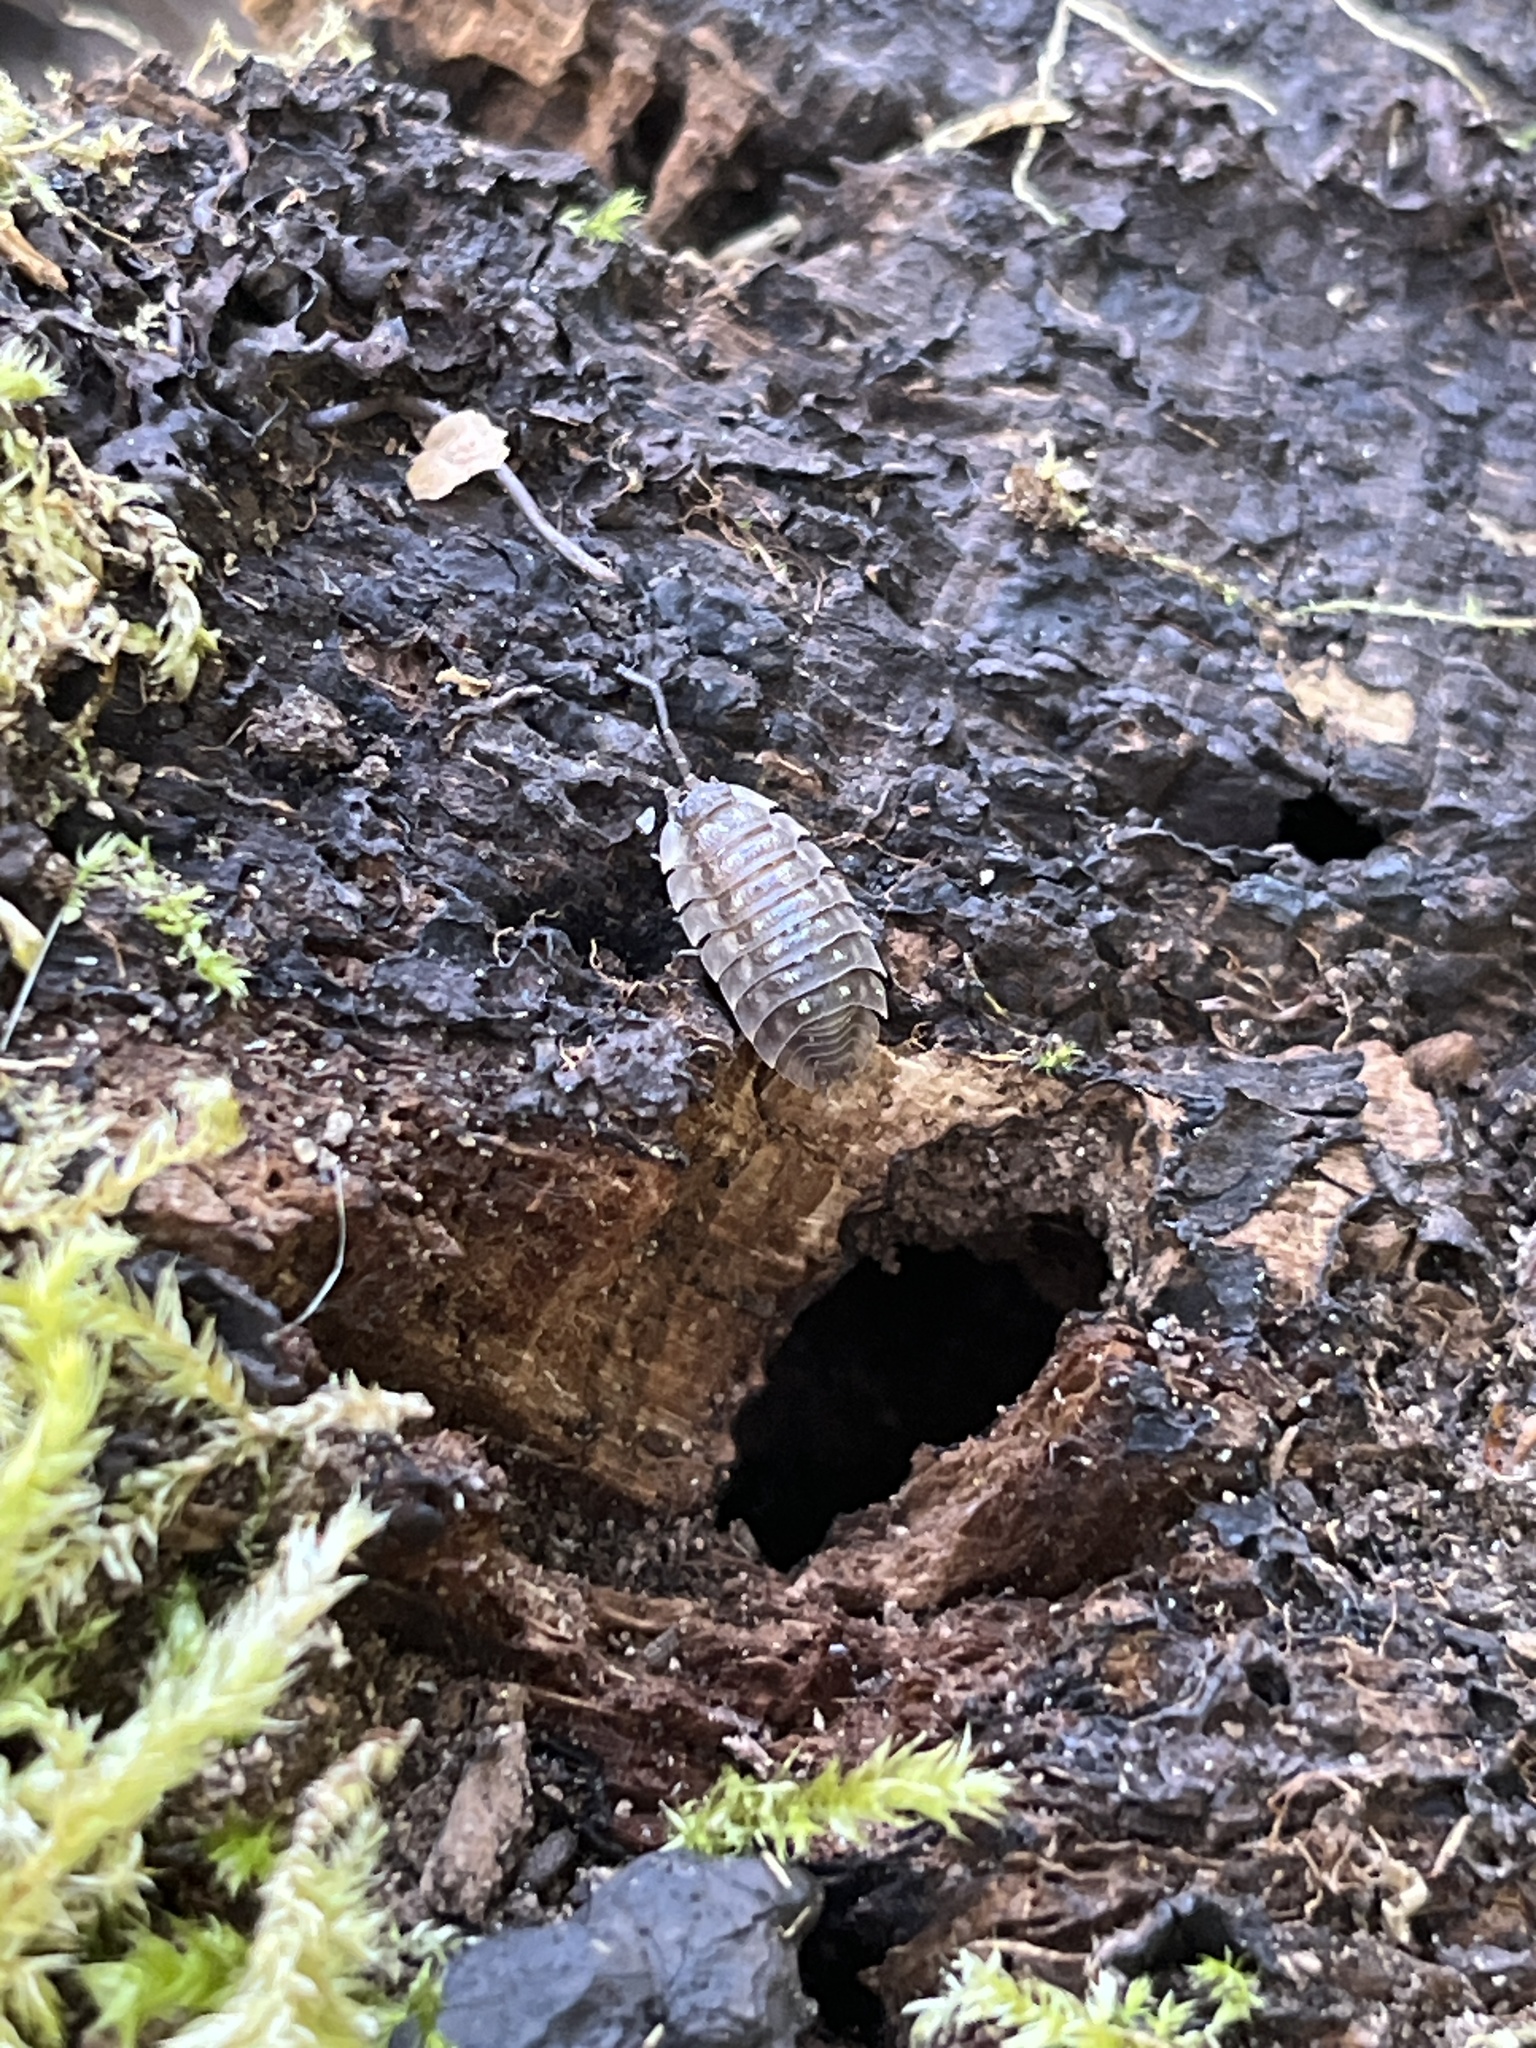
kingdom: Animalia
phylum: Arthropoda
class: Malacostraca
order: Isopoda
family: Oniscidae
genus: Oniscus
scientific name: Oniscus asellus
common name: Common shiny woodlouse
